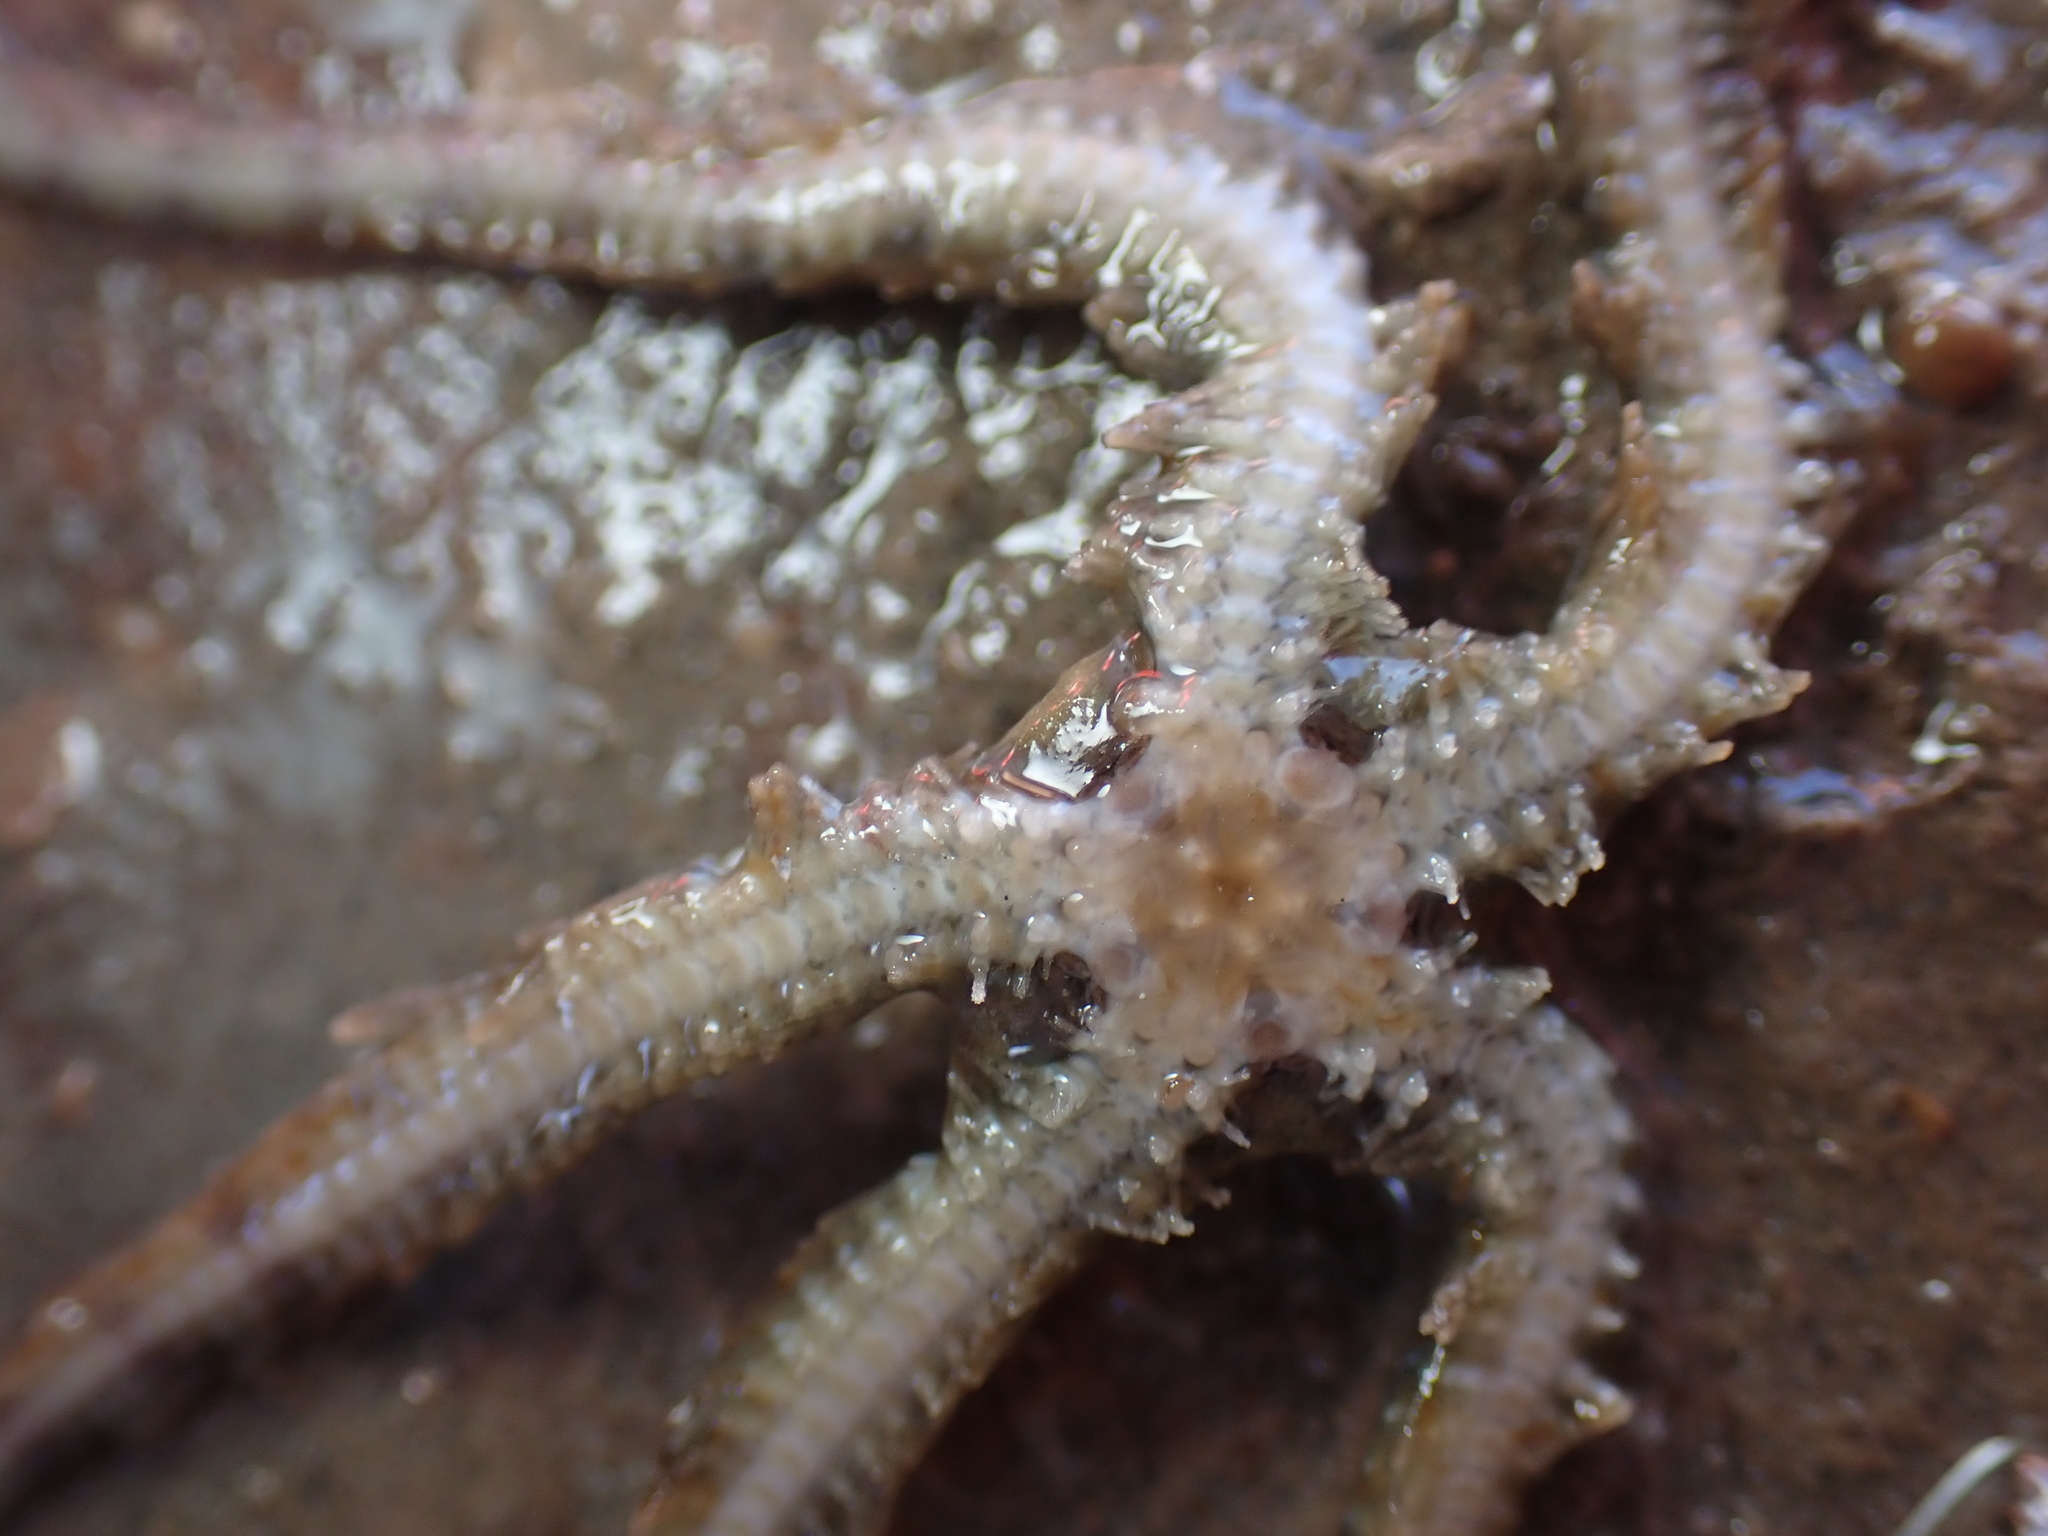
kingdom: Animalia
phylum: Echinodermata
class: Ophiuroidea
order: Amphilepidida
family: Ophiotrichidae
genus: Ophiothrix
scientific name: Ophiothrix fragilis
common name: Common brittlestar
